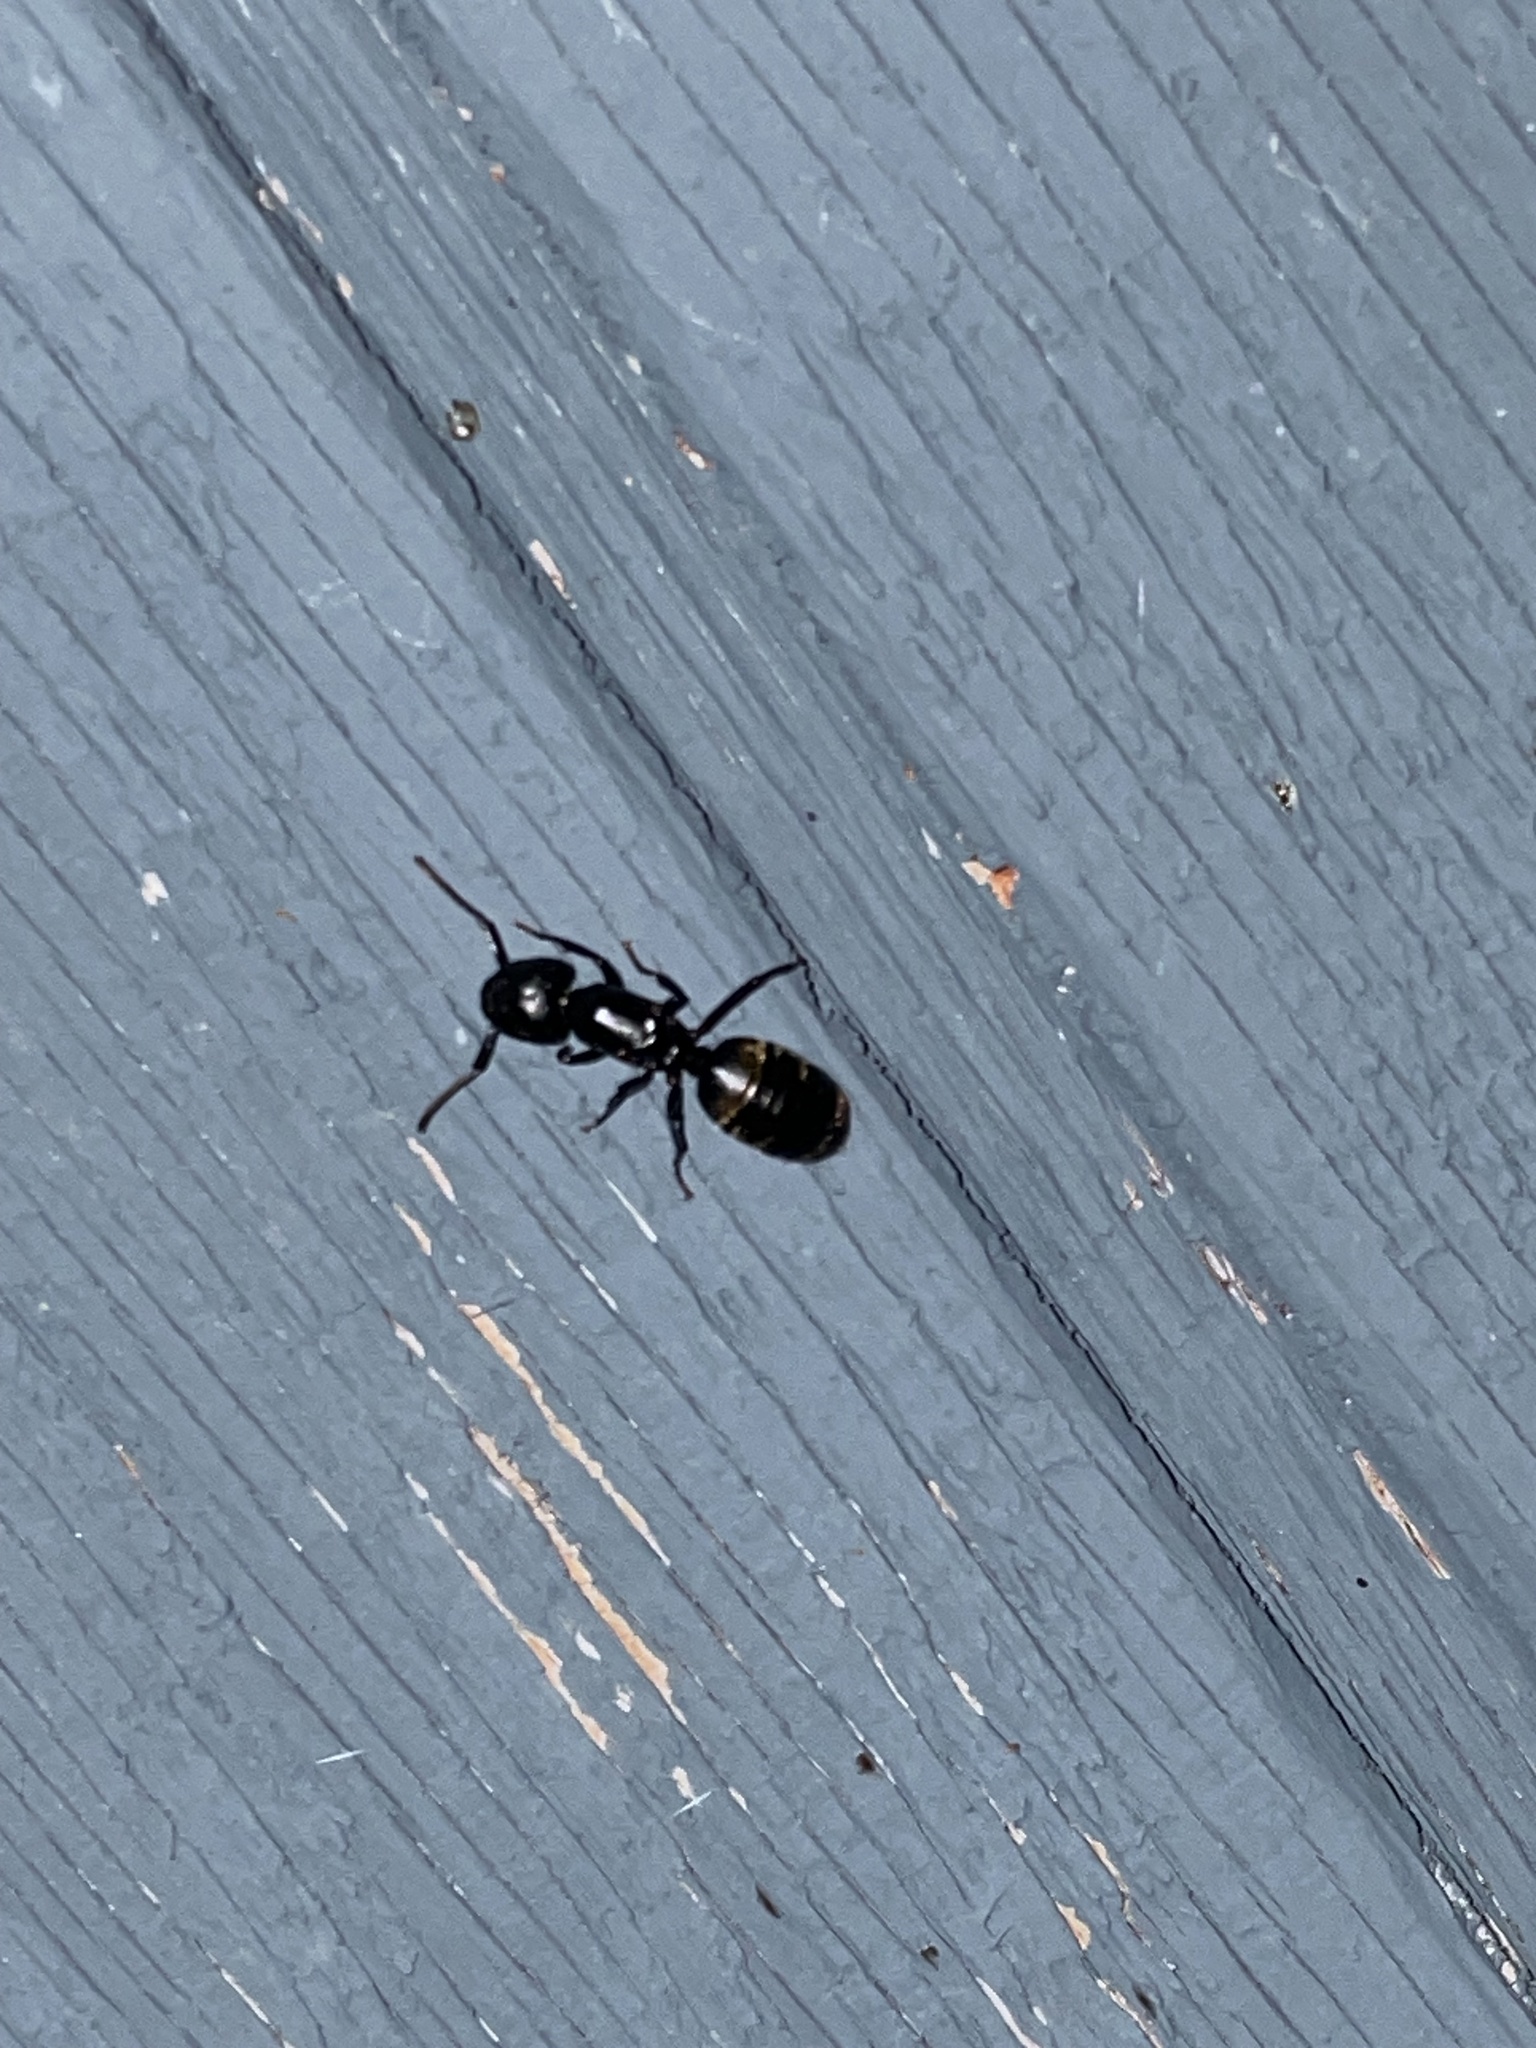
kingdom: Animalia
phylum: Arthropoda
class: Insecta
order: Hymenoptera
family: Formicidae
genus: Camponotus
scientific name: Camponotus pennsylvanicus
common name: Black carpenter ant
